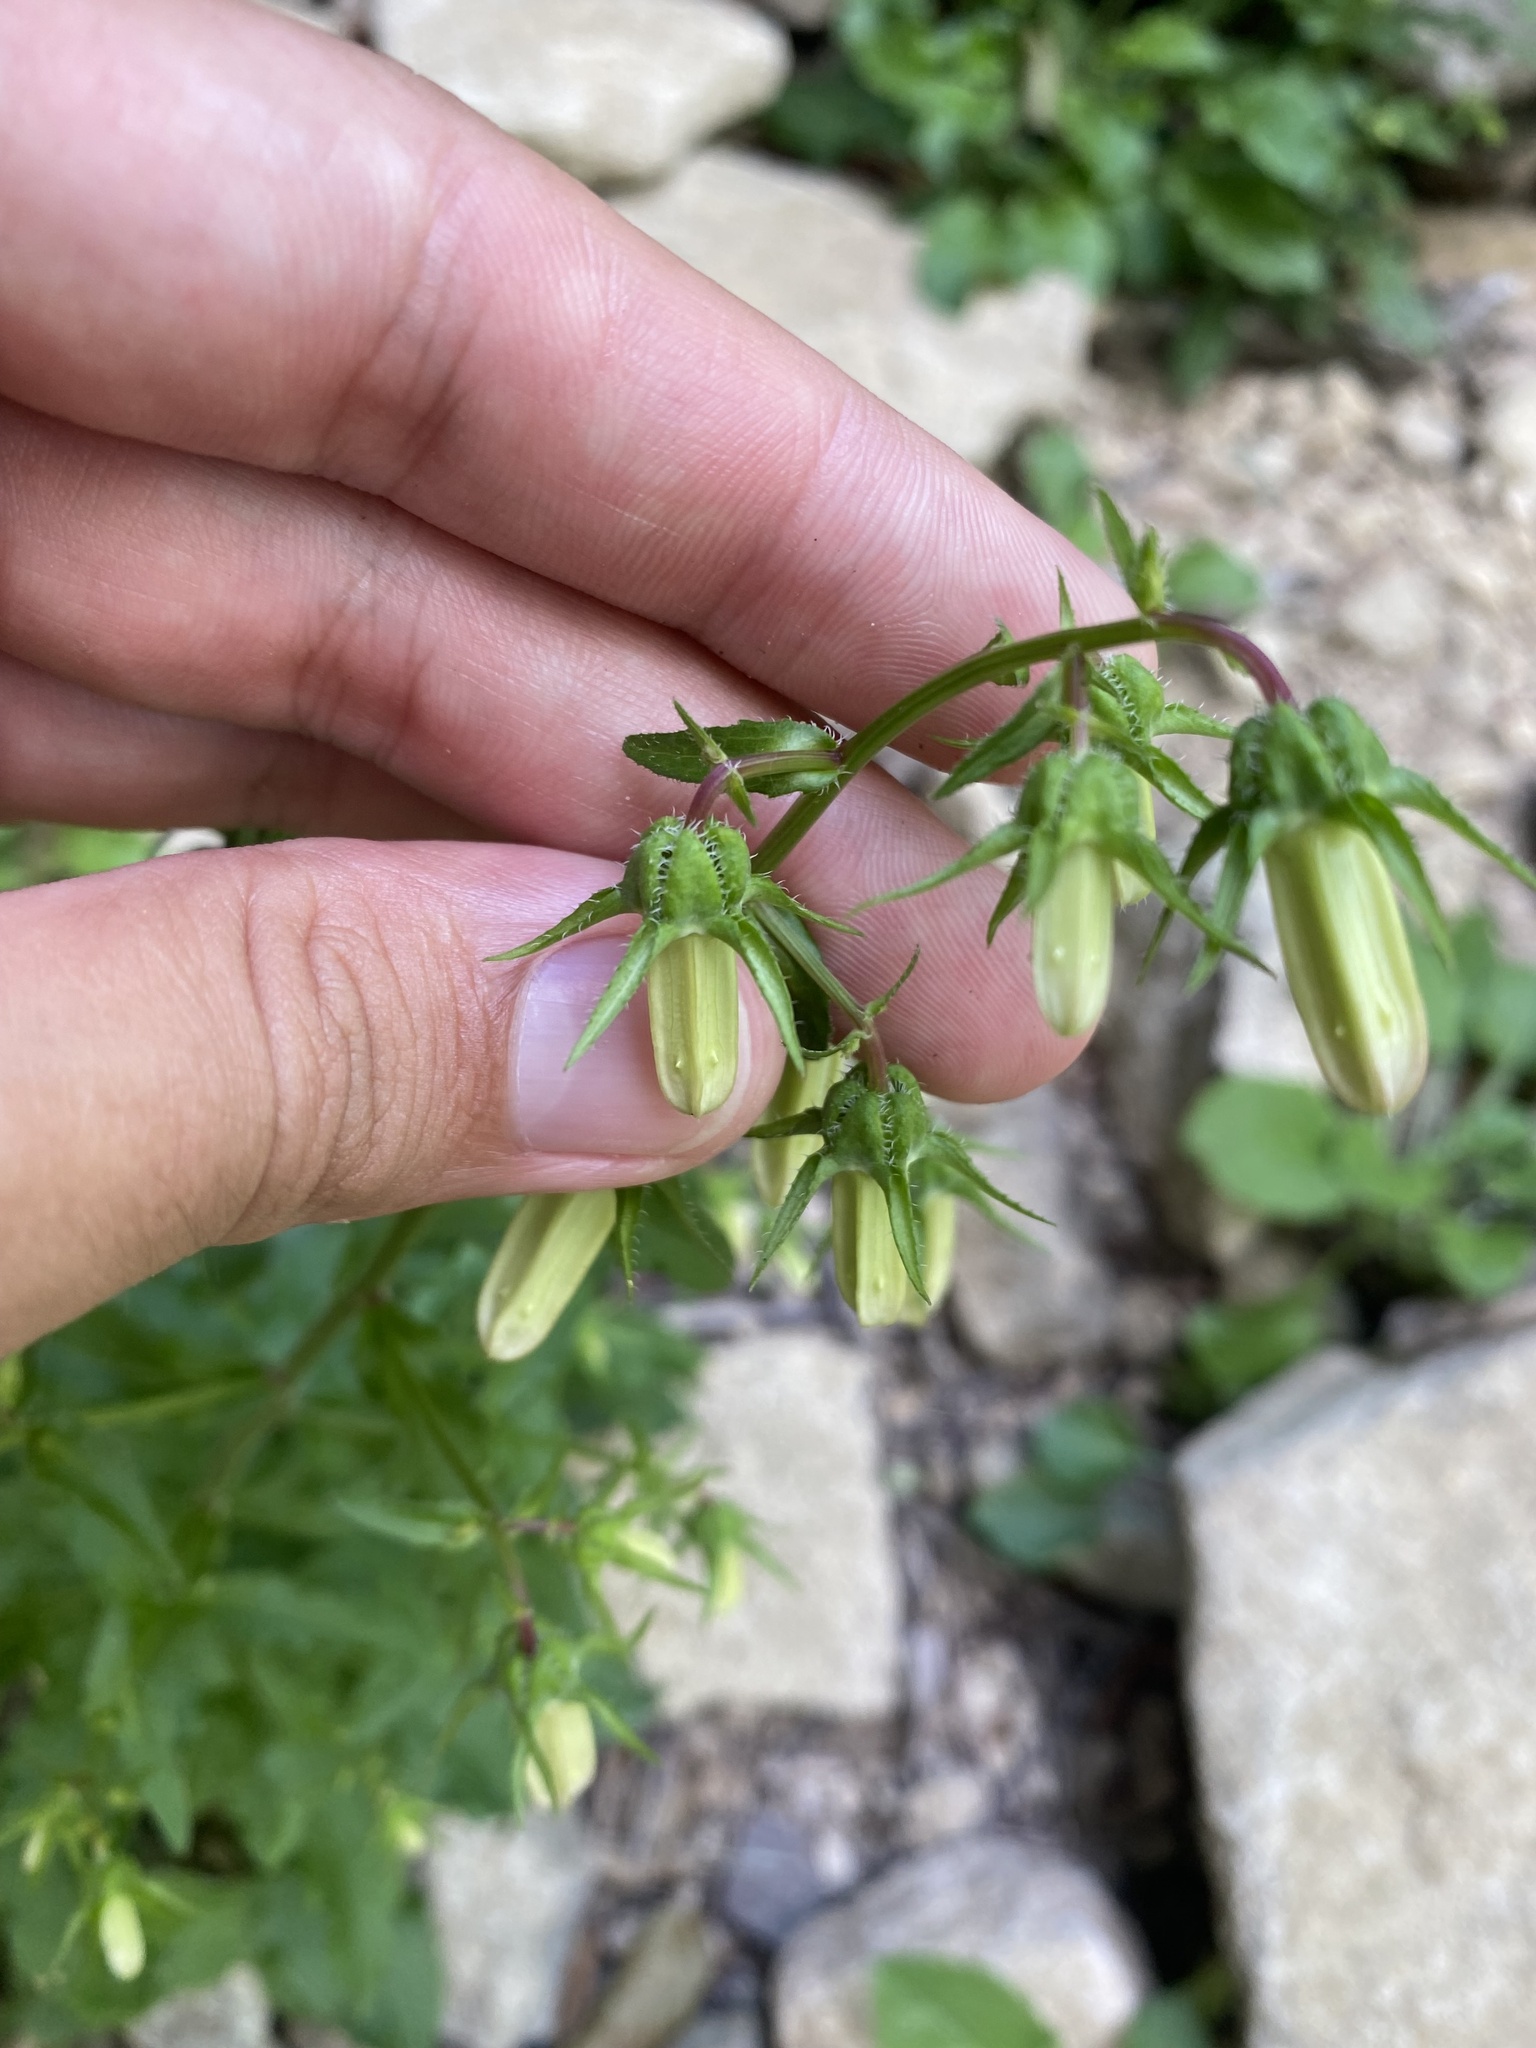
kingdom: Plantae
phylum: Tracheophyta
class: Magnoliopsida
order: Asterales
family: Campanulaceae
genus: Campanula
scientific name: Campanula komarovii
